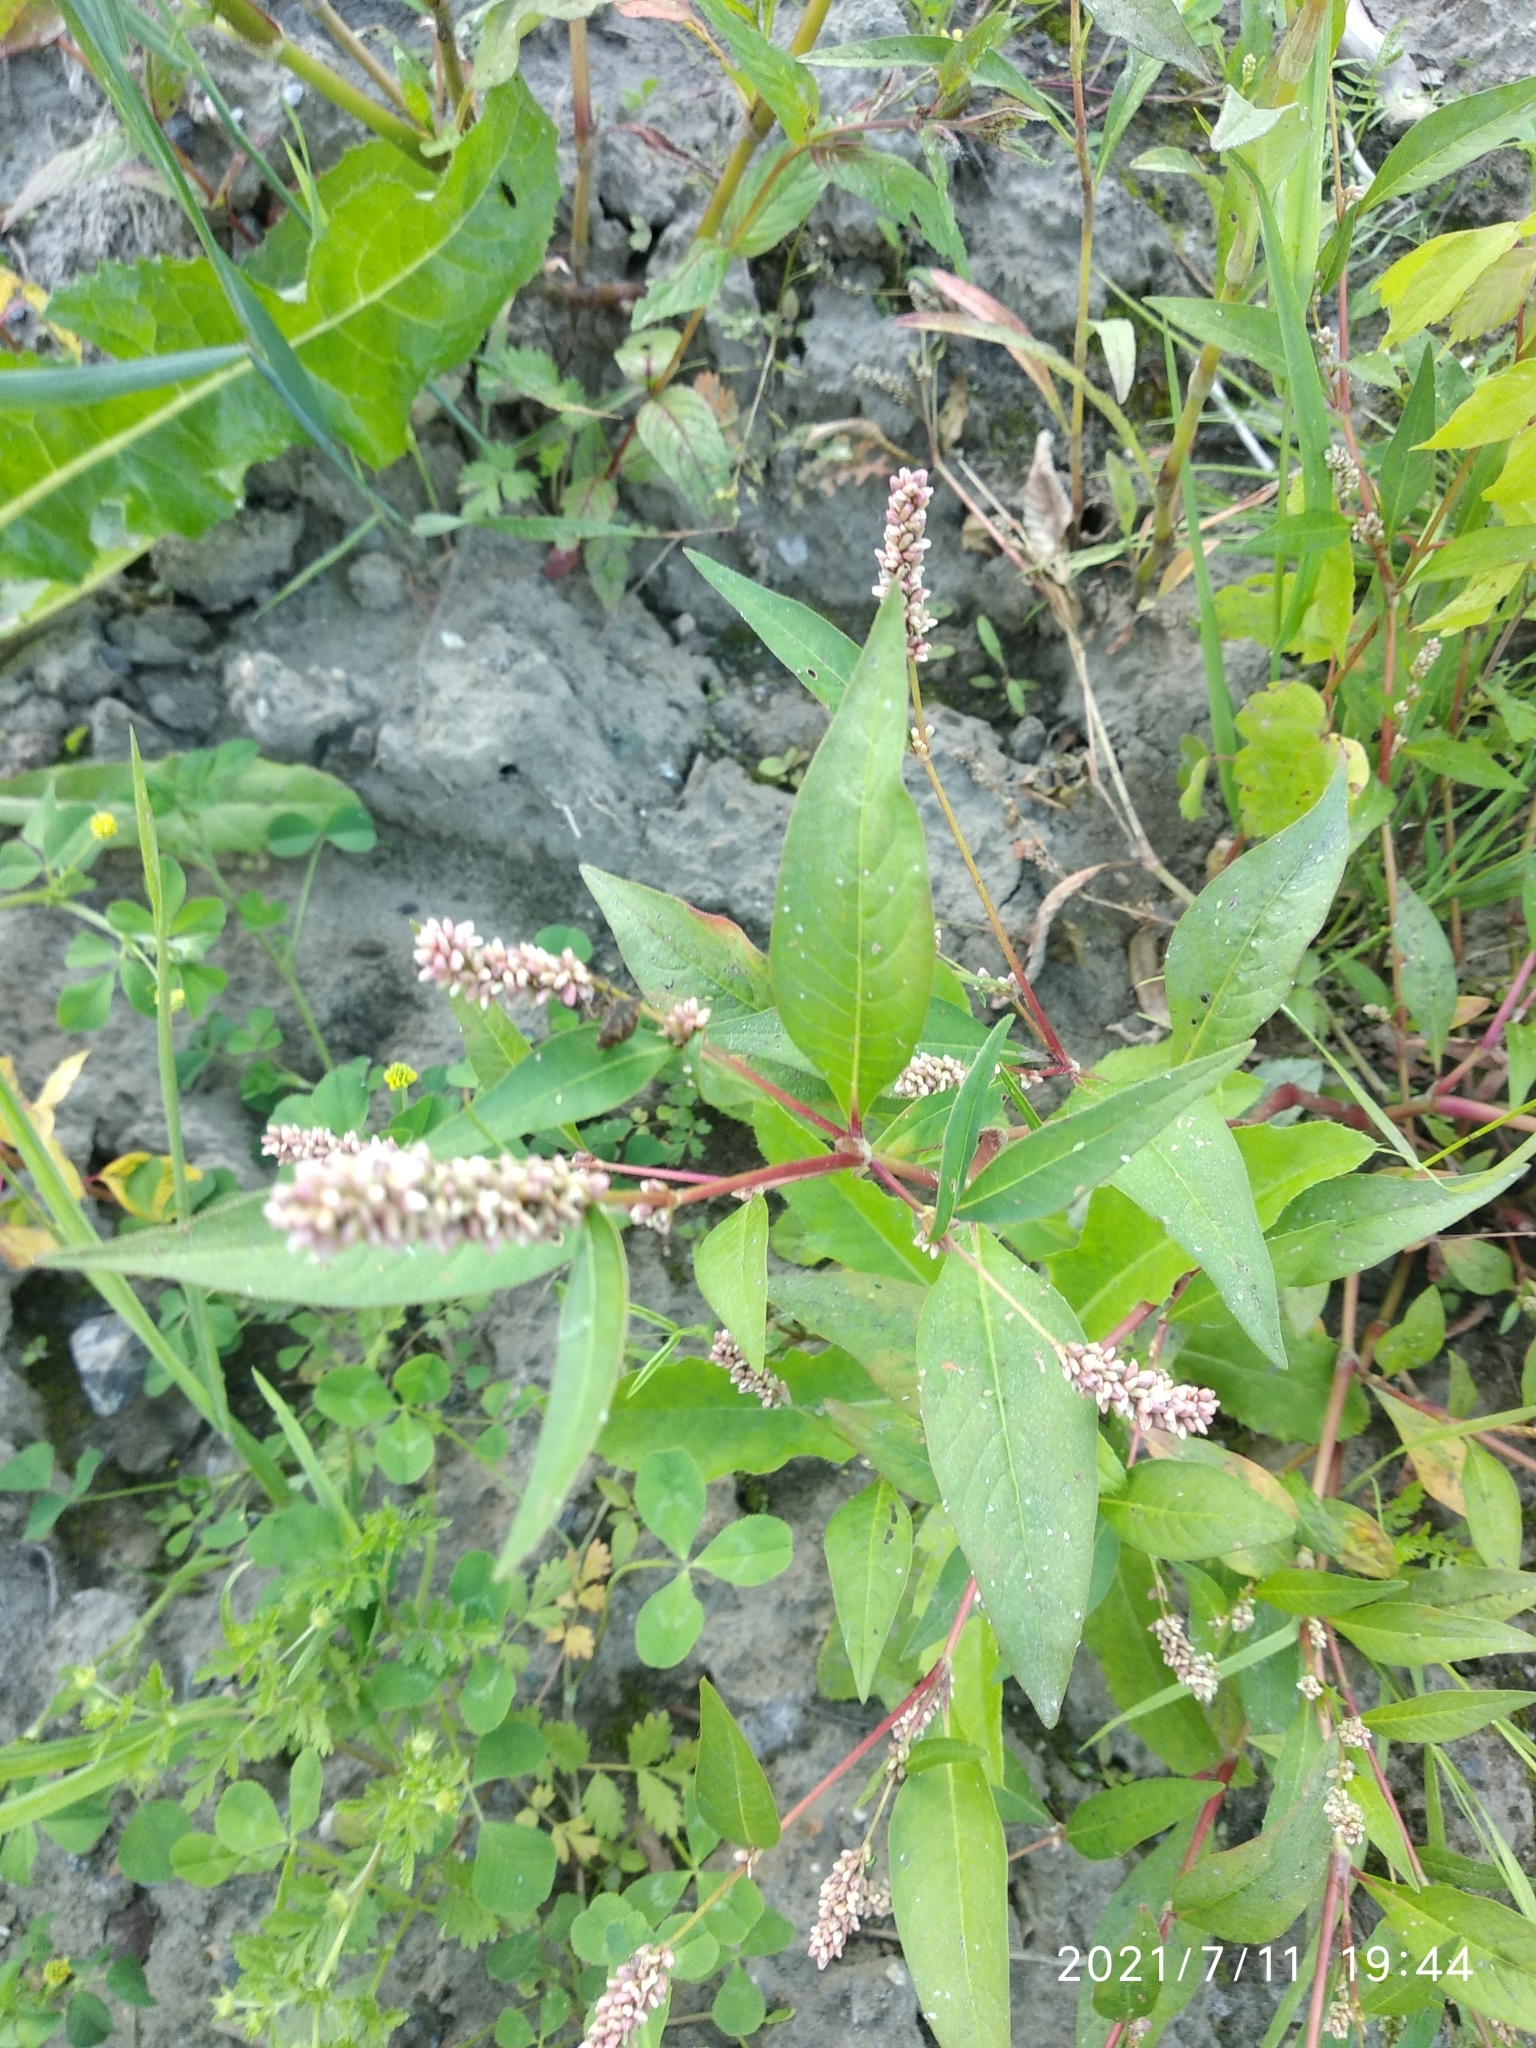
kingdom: Plantae
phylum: Tracheophyta
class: Magnoliopsida
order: Caryophyllales
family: Polygonaceae
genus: Persicaria
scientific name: Persicaria lapathifolia
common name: Curlytop knotweed
